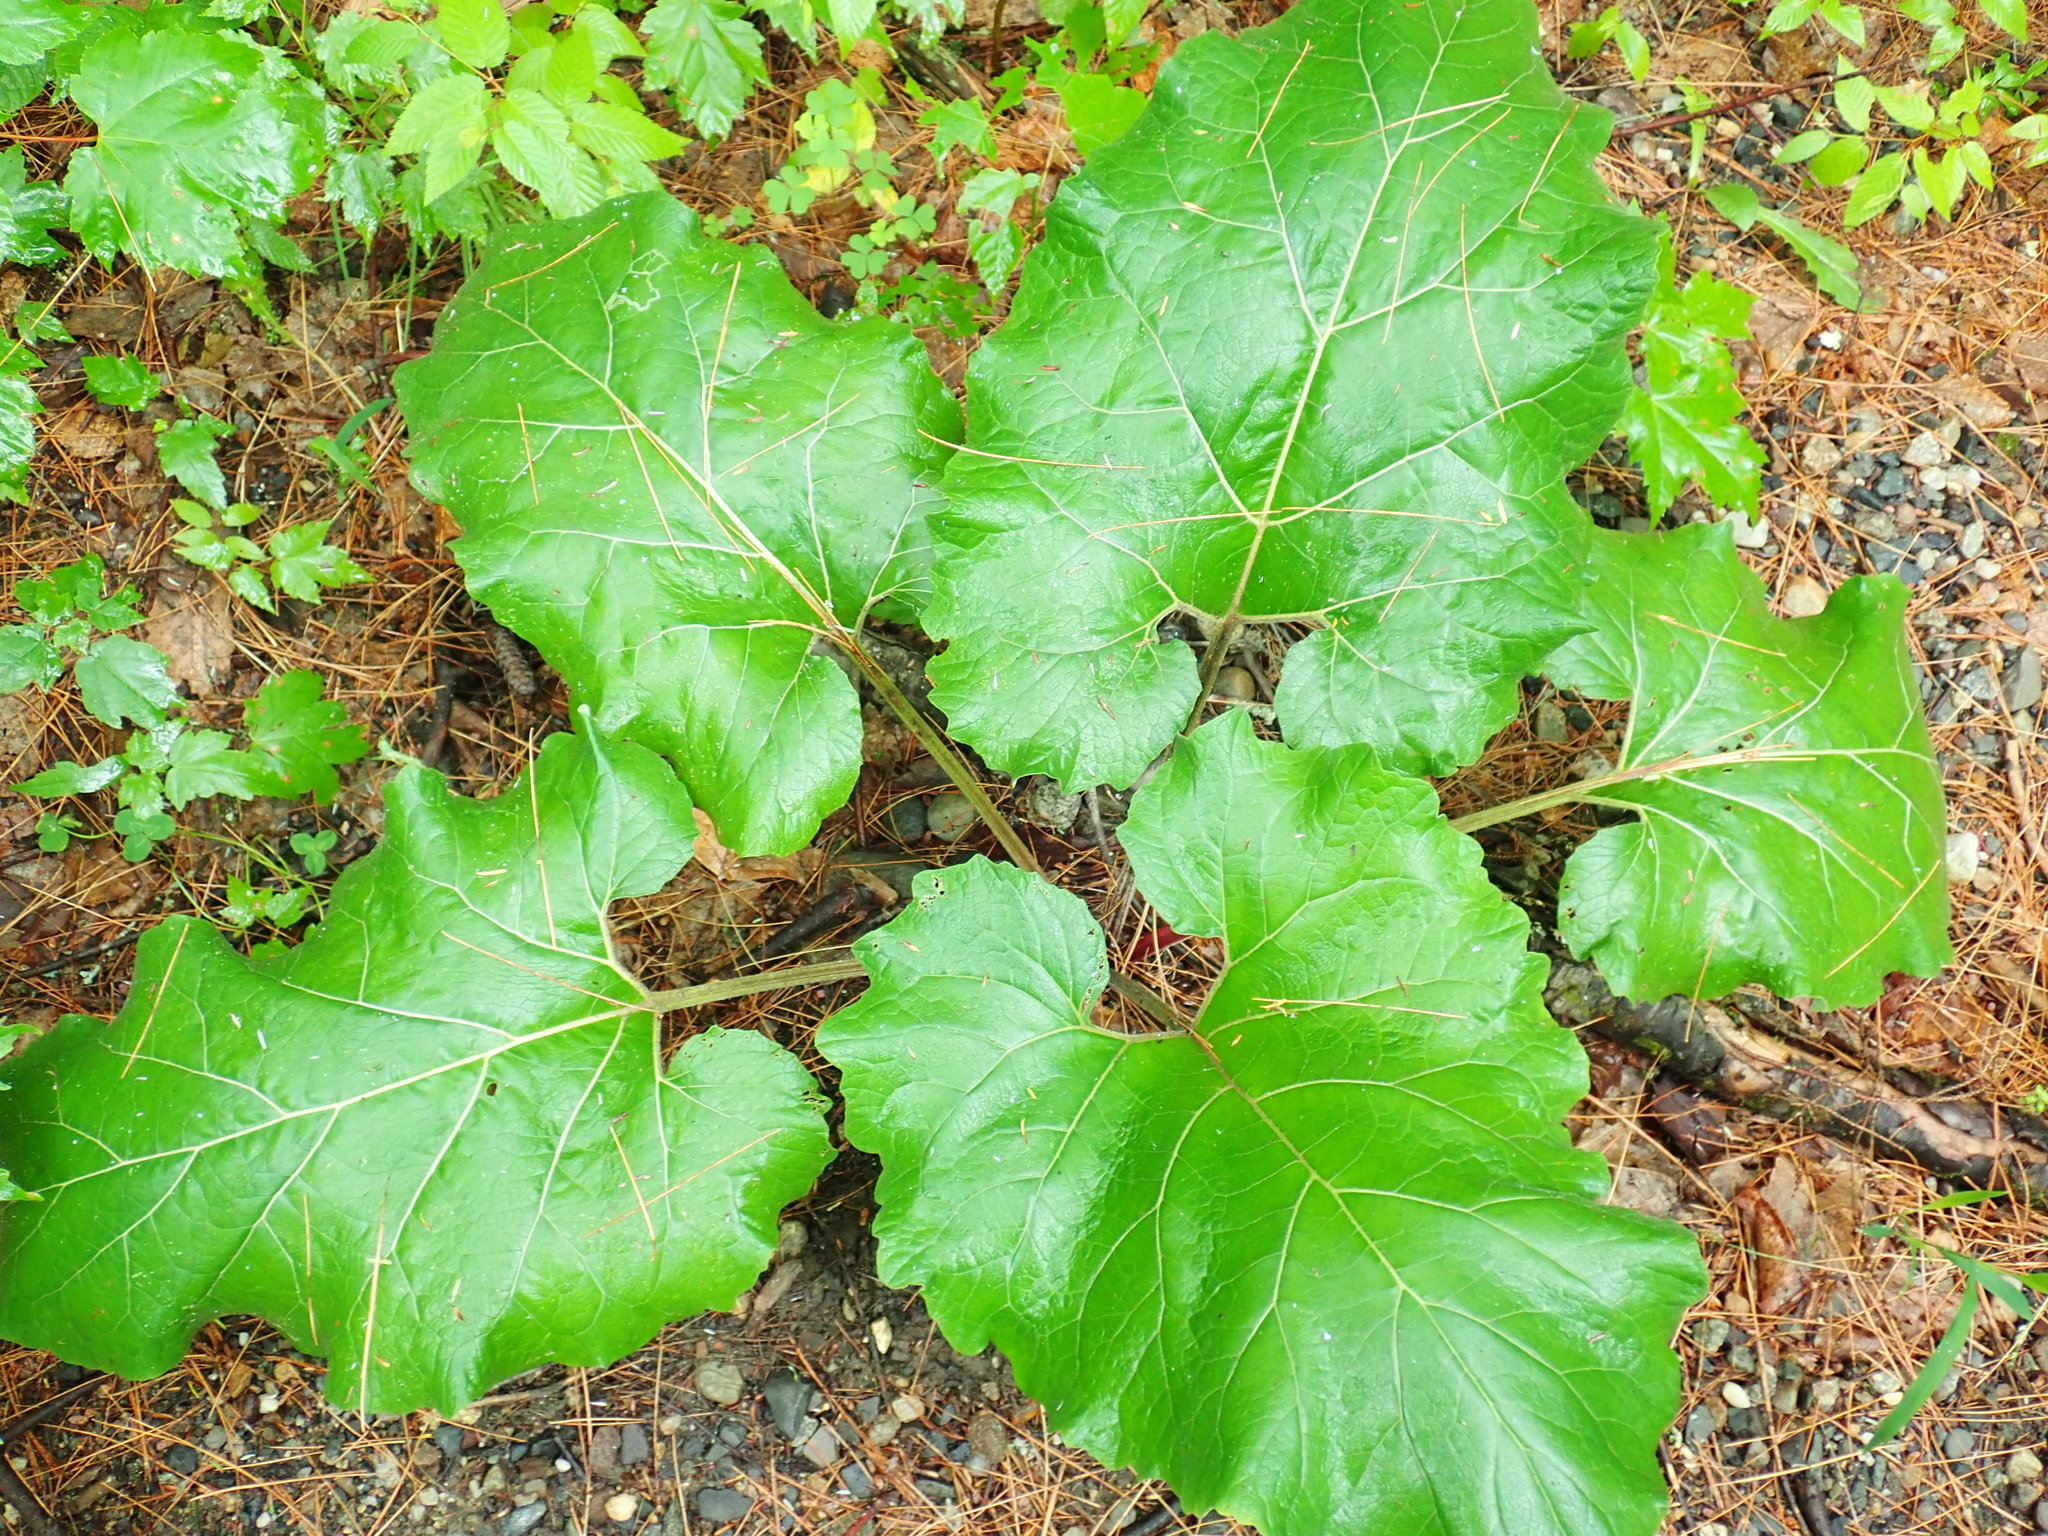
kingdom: Plantae
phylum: Tracheophyta
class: Magnoliopsida
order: Asterales
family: Asteraceae
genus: Arctium
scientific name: Arctium
